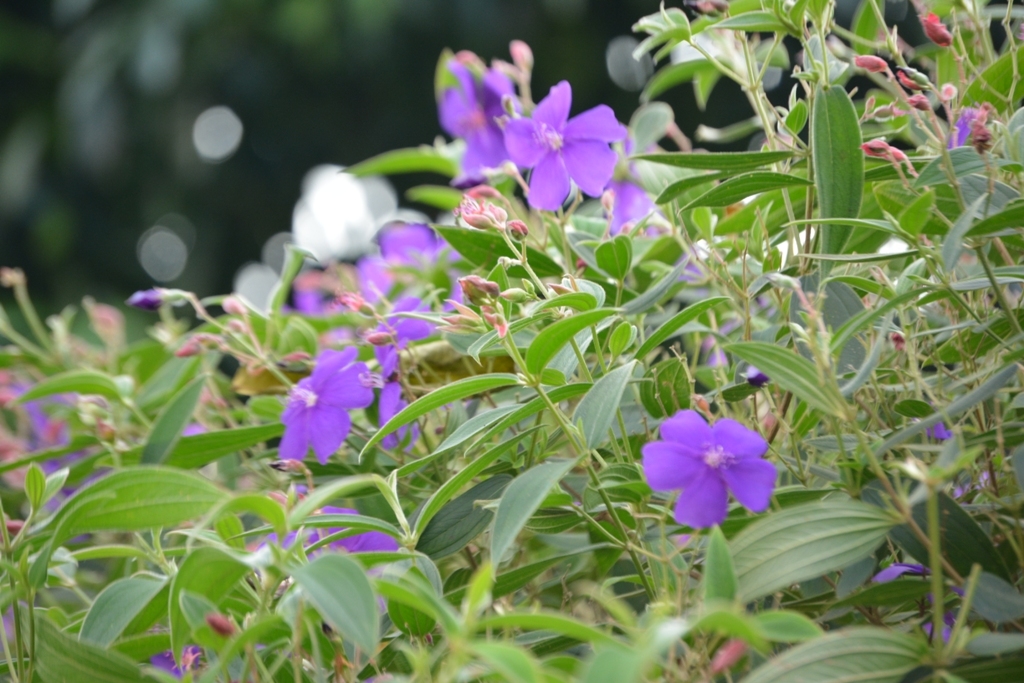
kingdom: Plantae
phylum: Tracheophyta
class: Magnoliopsida
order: Myrtales
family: Melastomataceae
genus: Pleroma
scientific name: Pleroma urvilleanum
